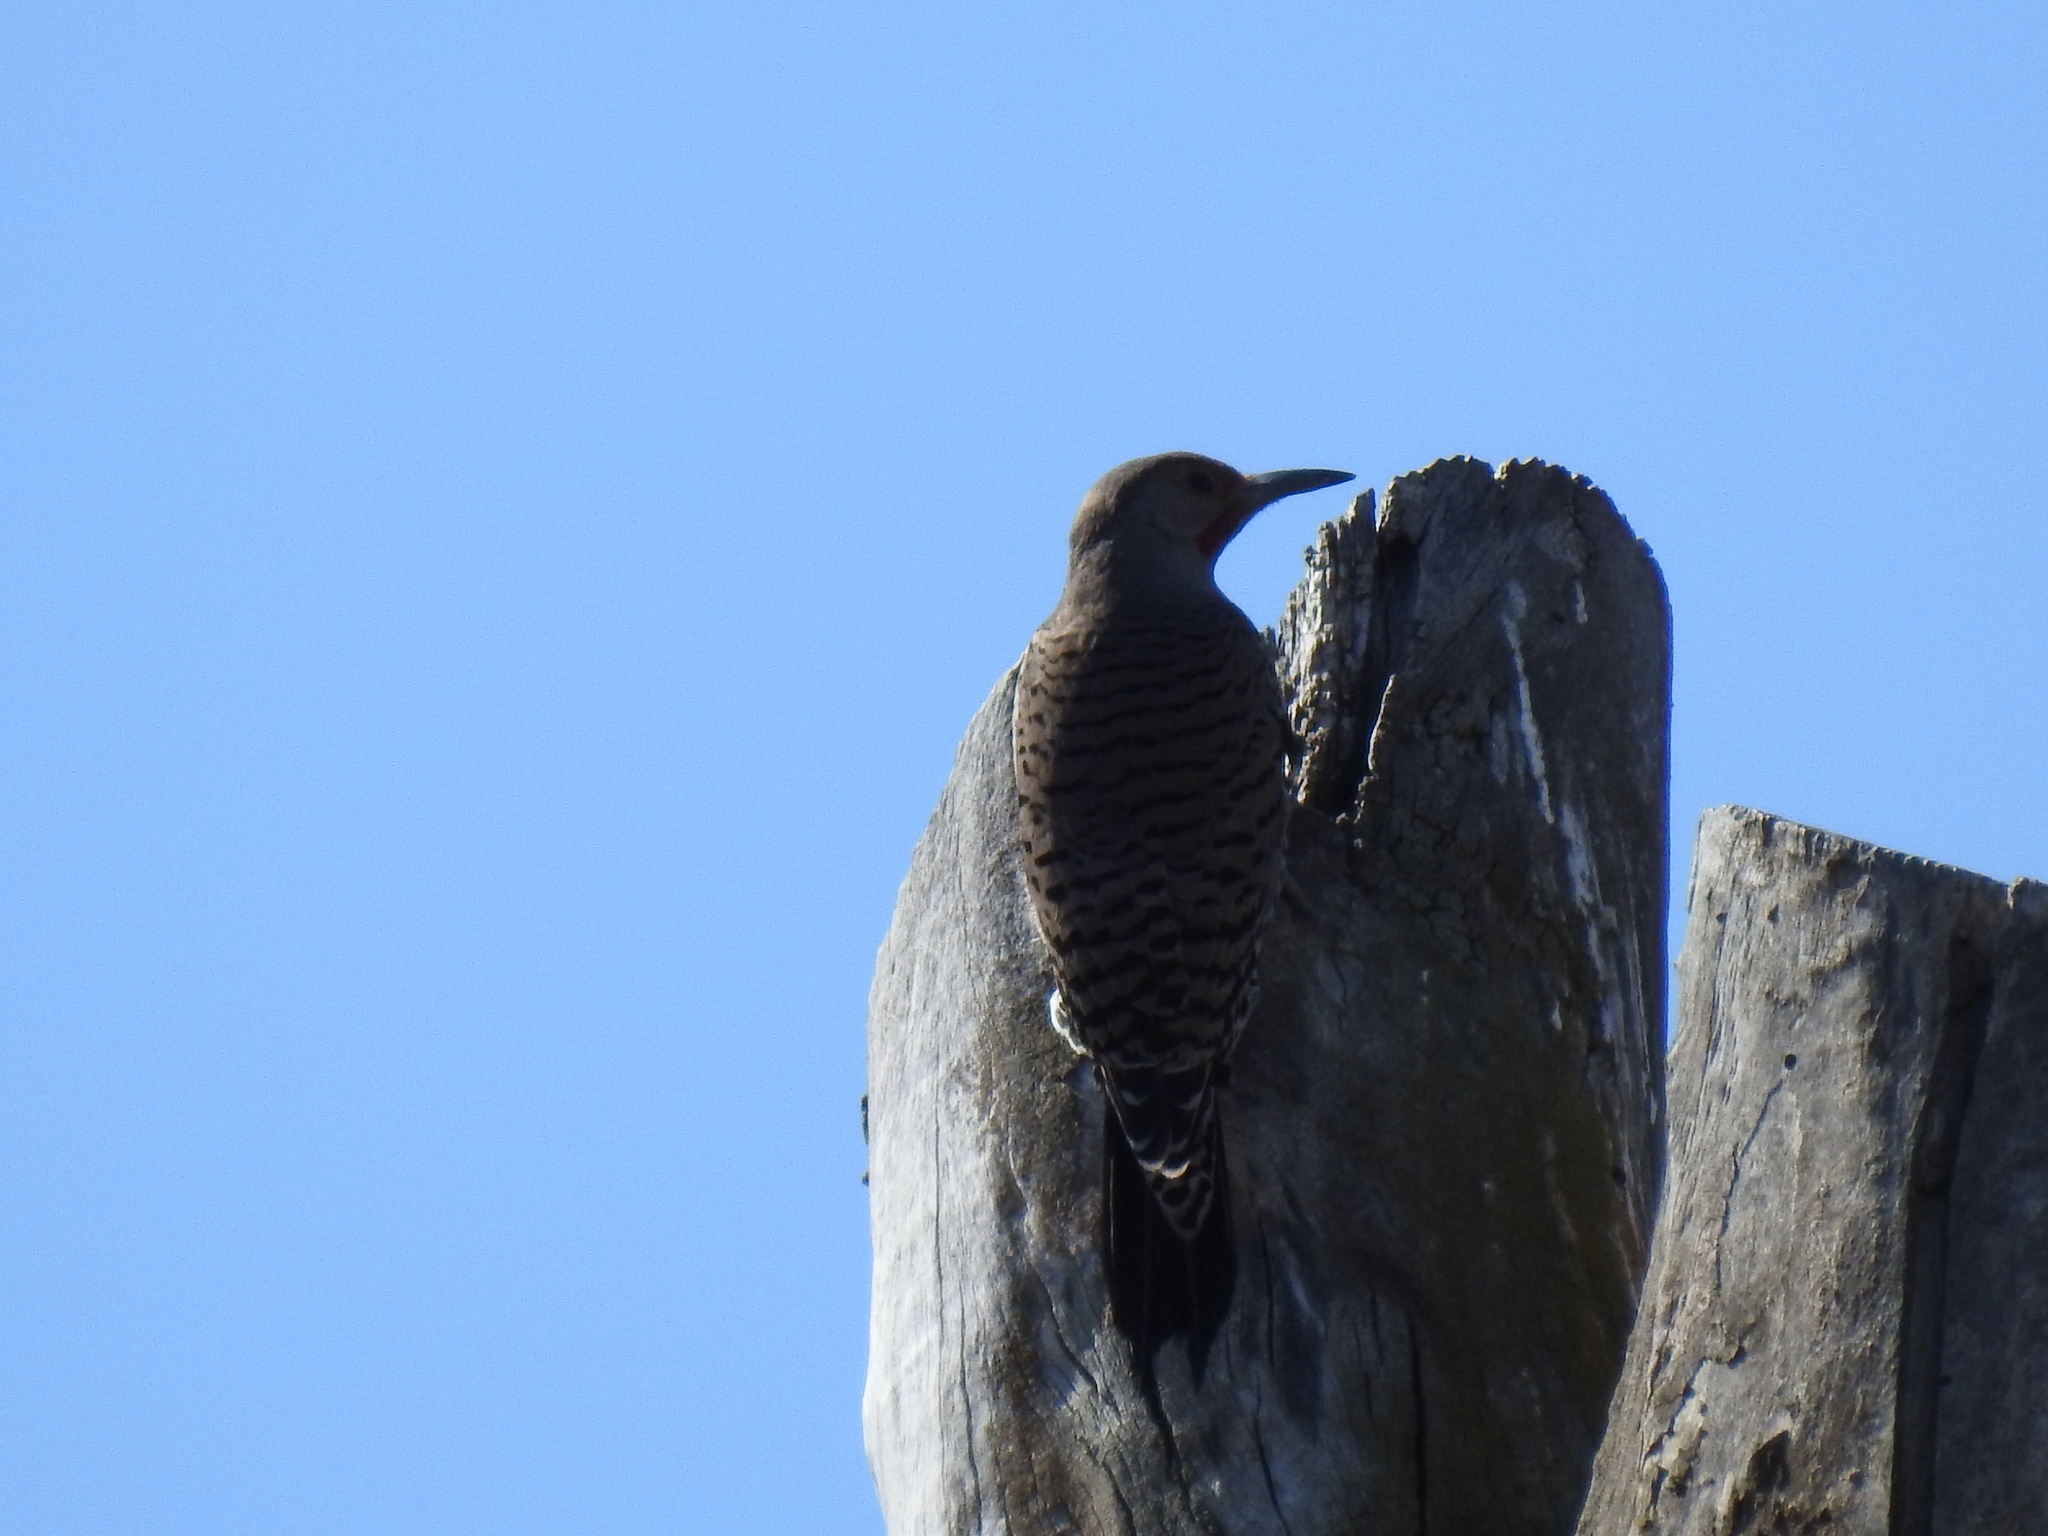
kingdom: Animalia
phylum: Chordata
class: Aves
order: Piciformes
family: Picidae
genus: Colaptes
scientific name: Colaptes auratus
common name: Northern flicker
